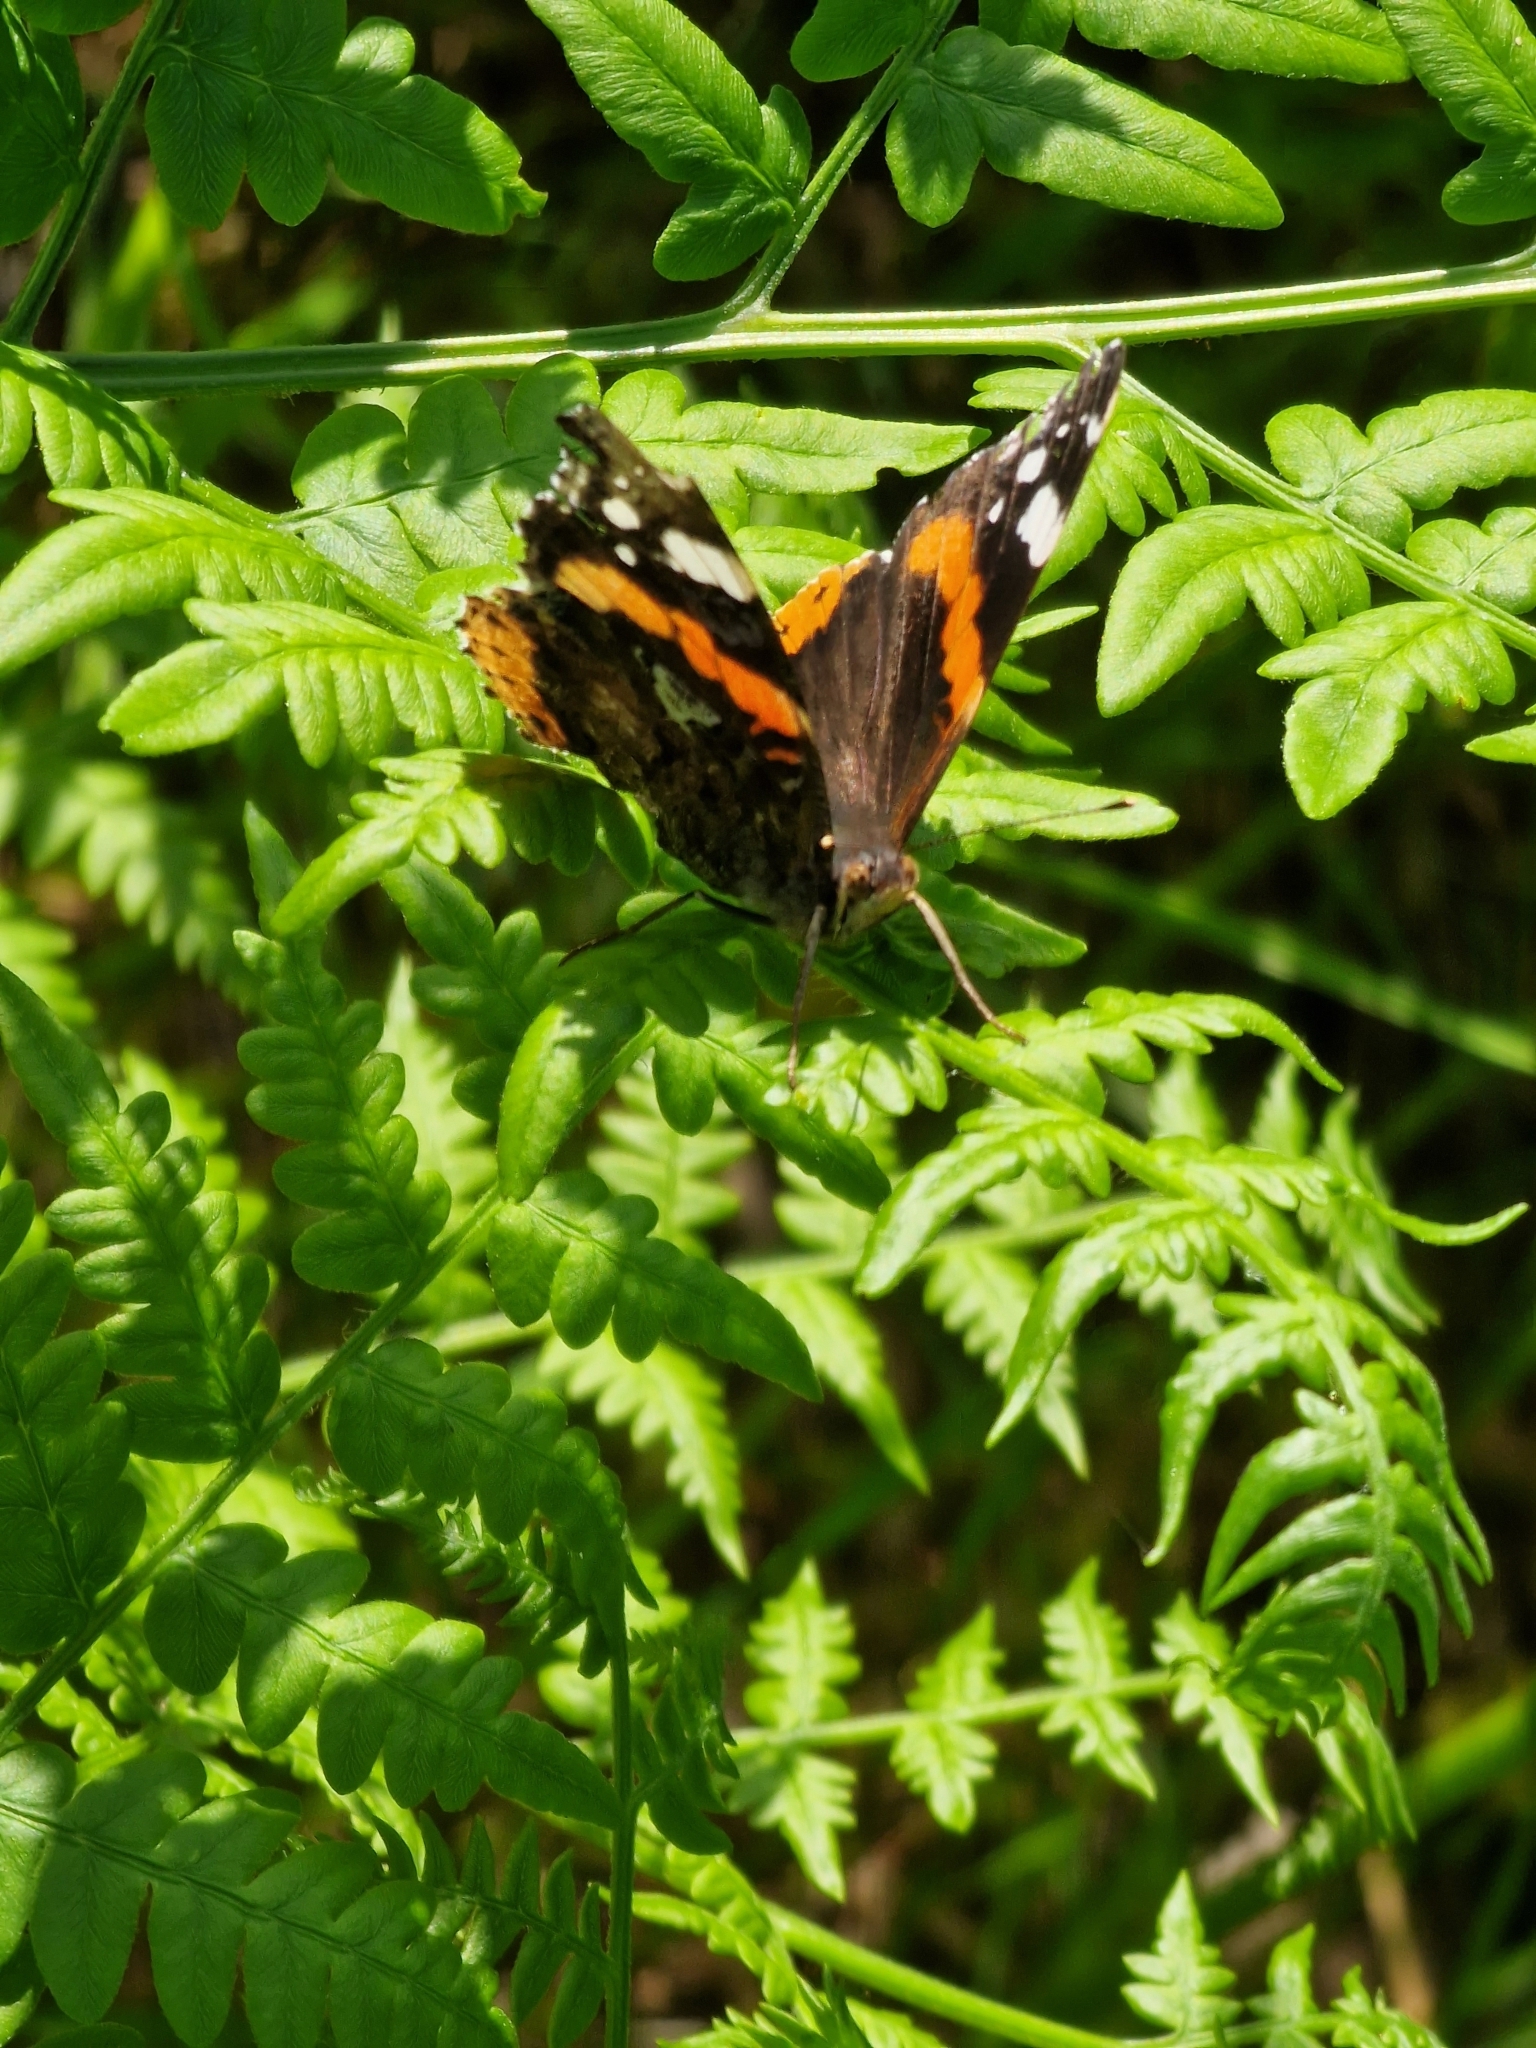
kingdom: Animalia
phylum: Arthropoda
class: Insecta
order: Lepidoptera
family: Nymphalidae
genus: Vanessa
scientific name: Vanessa atalanta
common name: Red admiral
